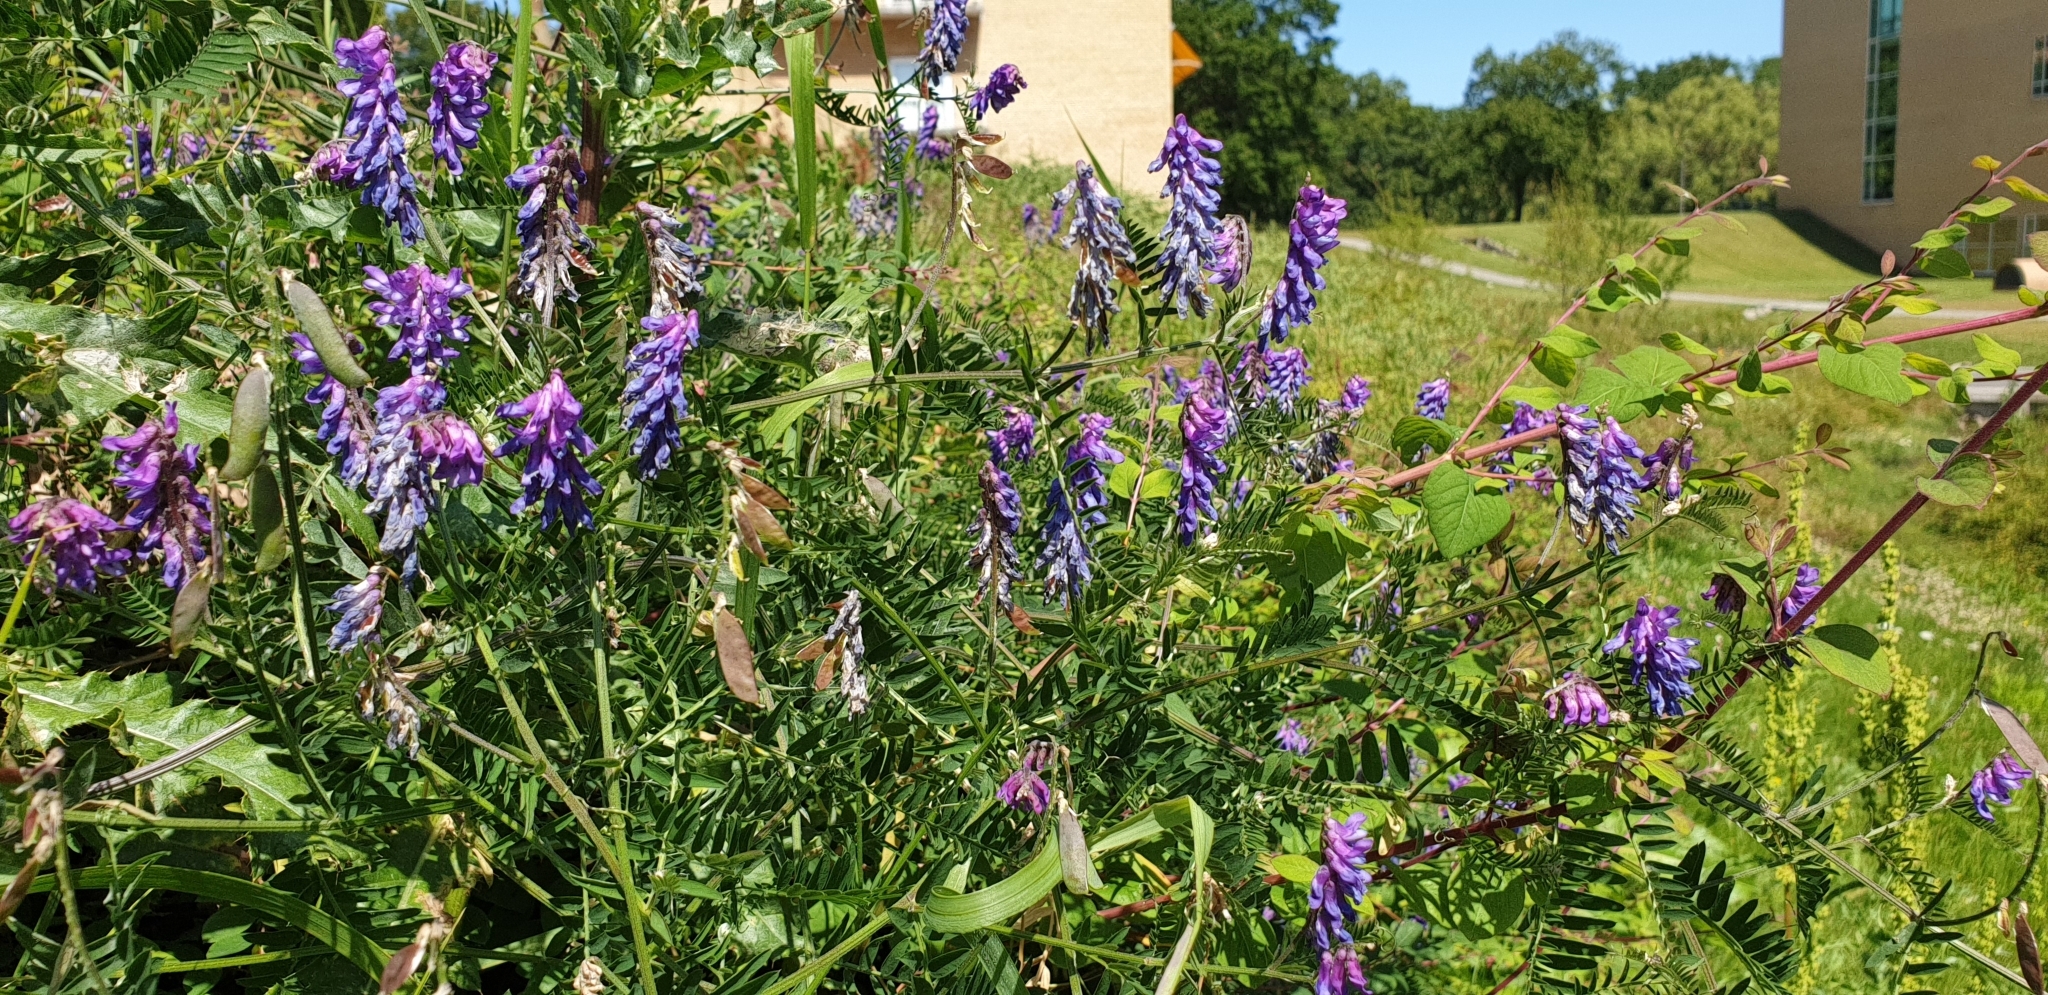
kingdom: Plantae
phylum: Tracheophyta
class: Magnoliopsida
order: Fabales
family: Fabaceae
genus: Vicia
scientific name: Vicia cracca
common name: Bird vetch
